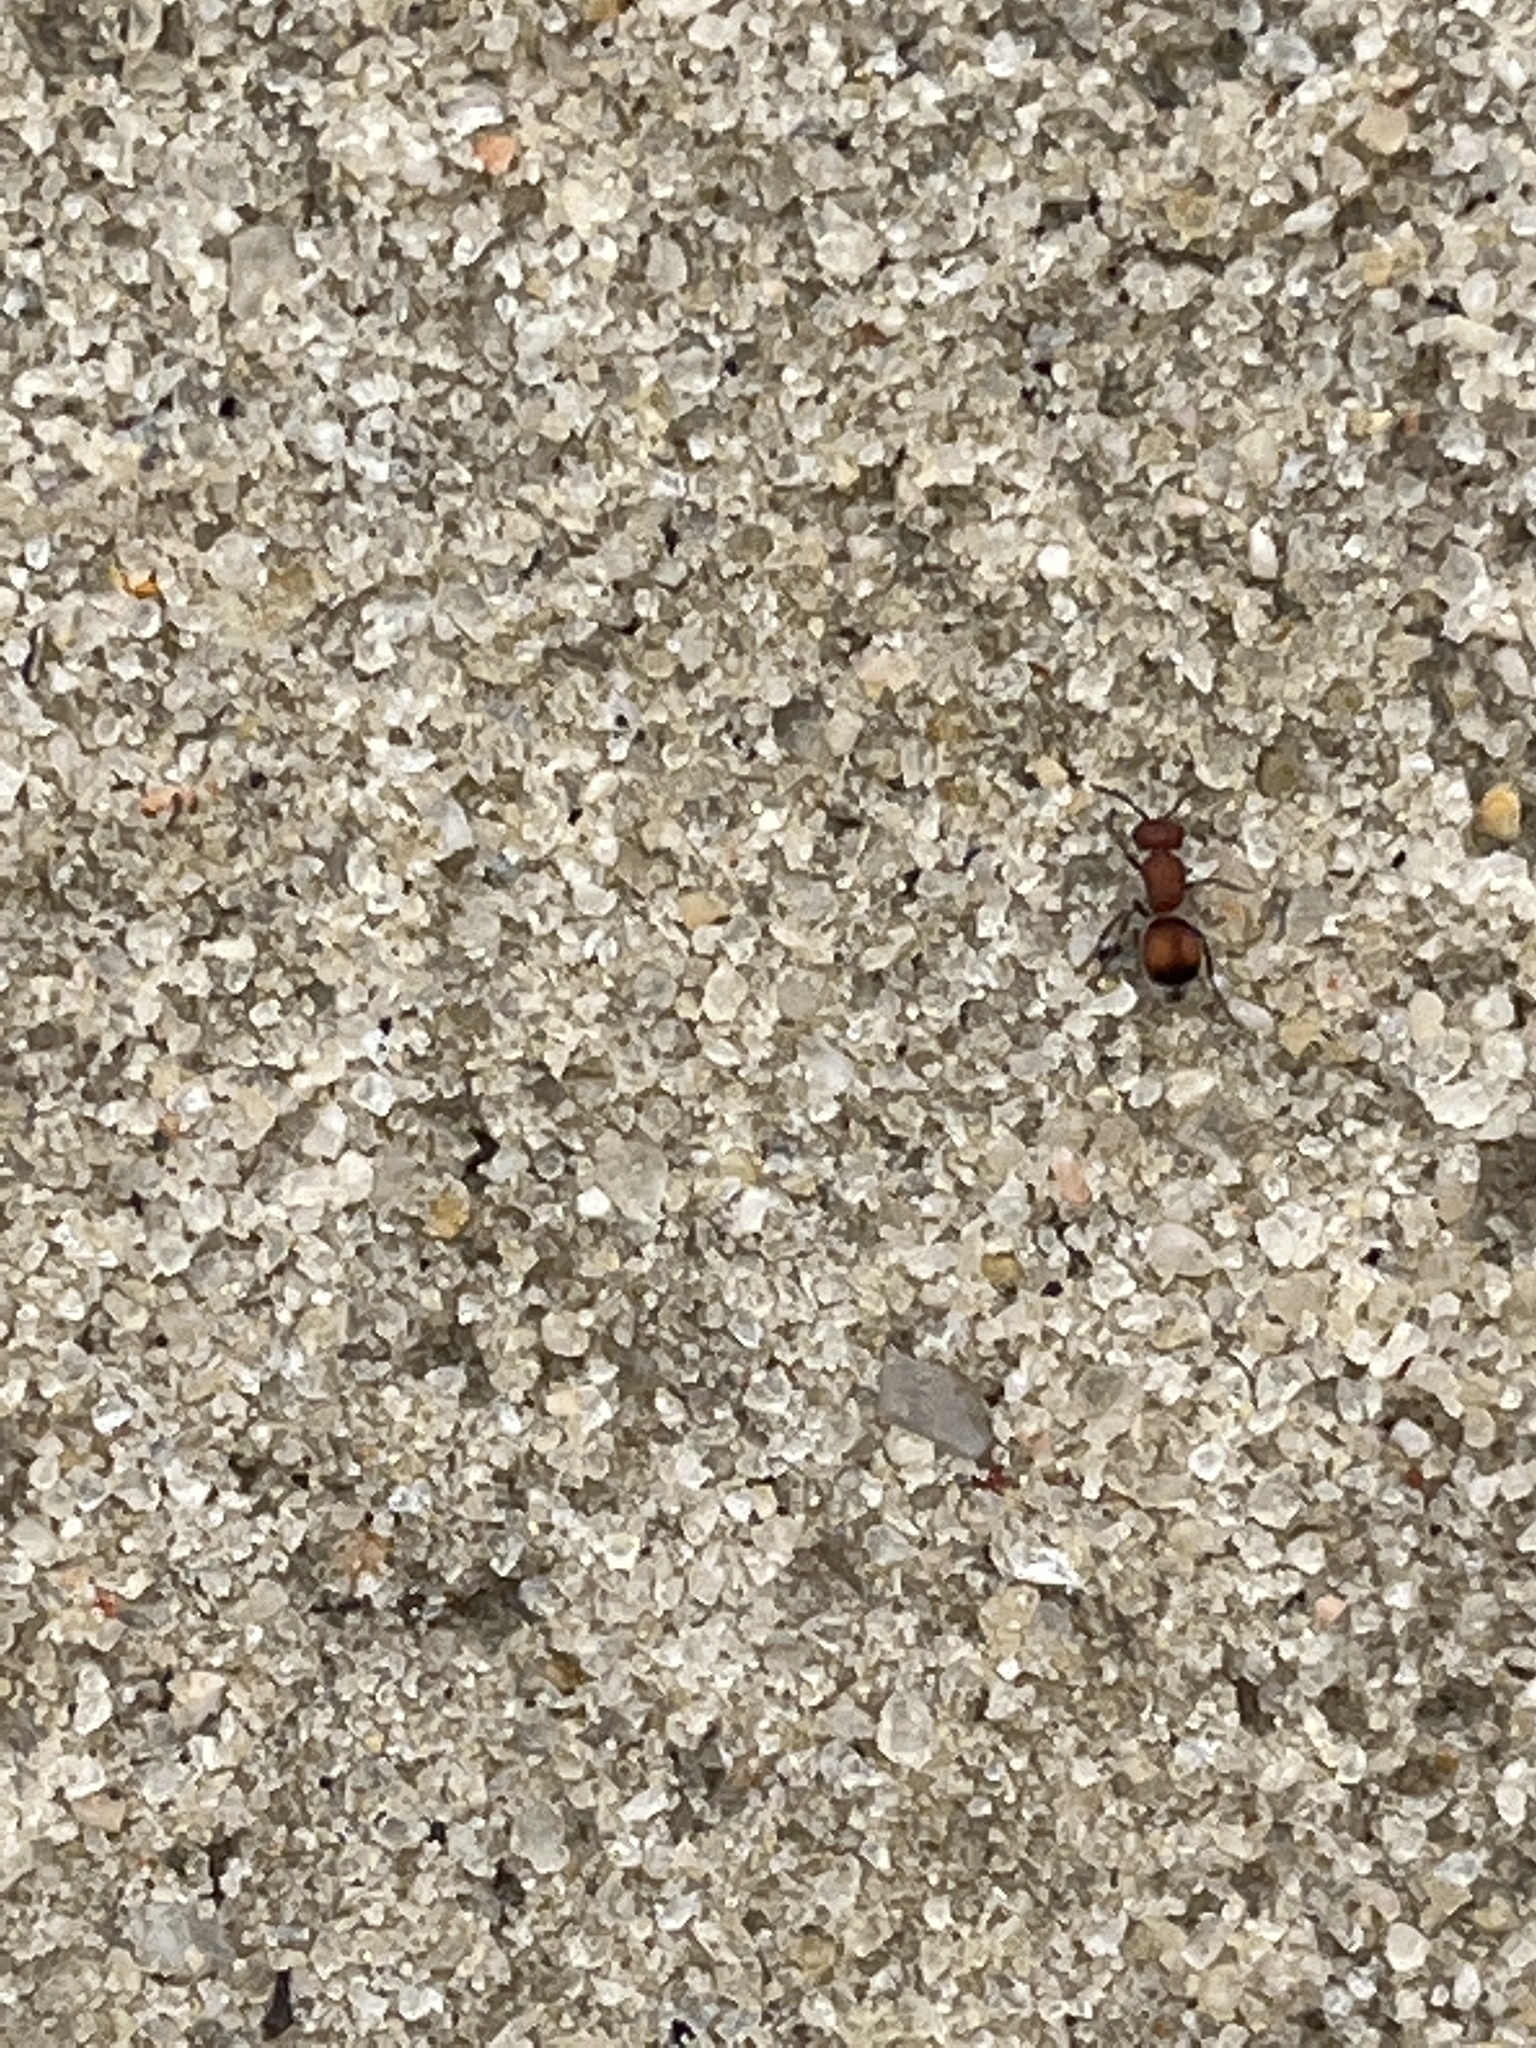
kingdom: Animalia
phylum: Arthropoda
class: Insecta
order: Hymenoptera
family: Mutillidae
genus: Pseudomethoca
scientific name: Pseudomethoca
